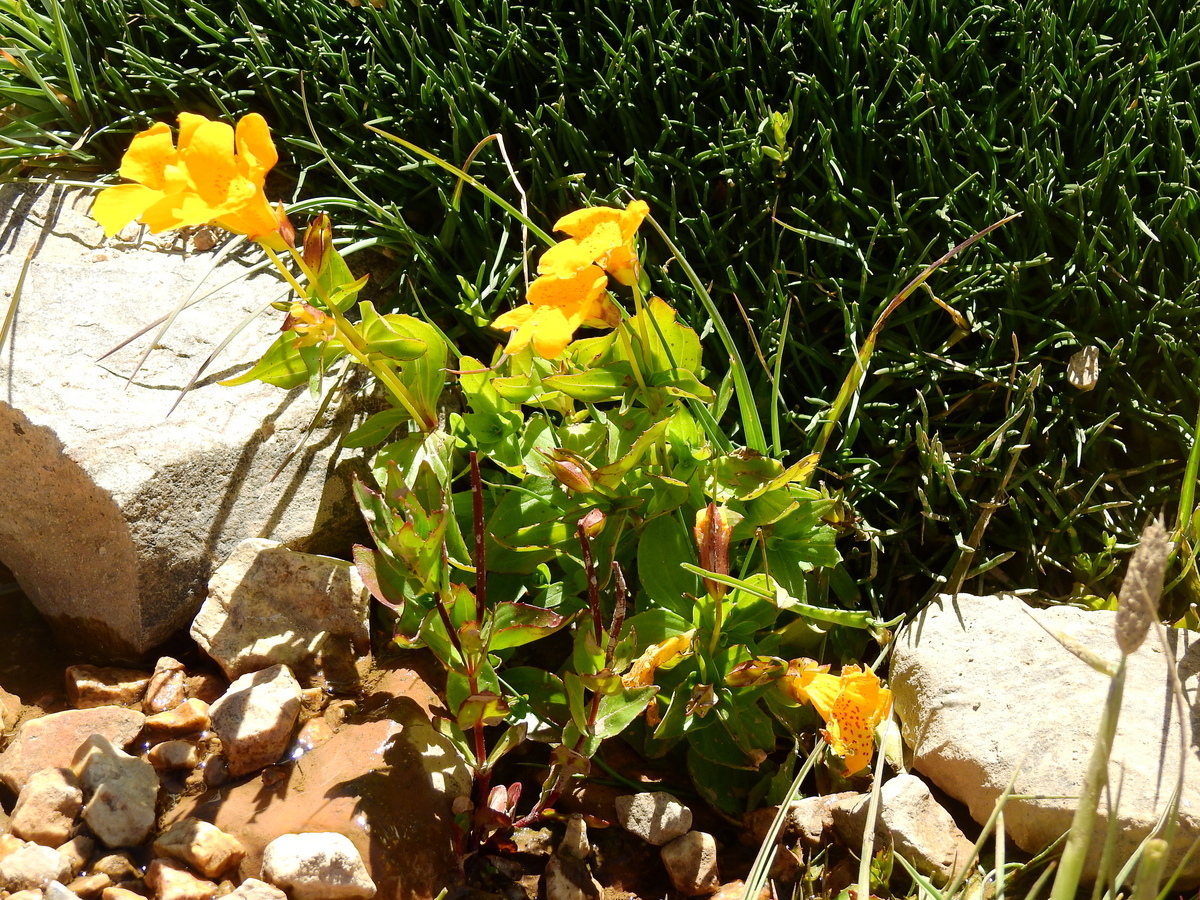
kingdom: Plantae
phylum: Tracheophyta
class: Magnoliopsida
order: Lamiales
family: Phrymaceae
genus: Erythranthe
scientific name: Erythranthe lutea
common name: Yellow monkey-flower
